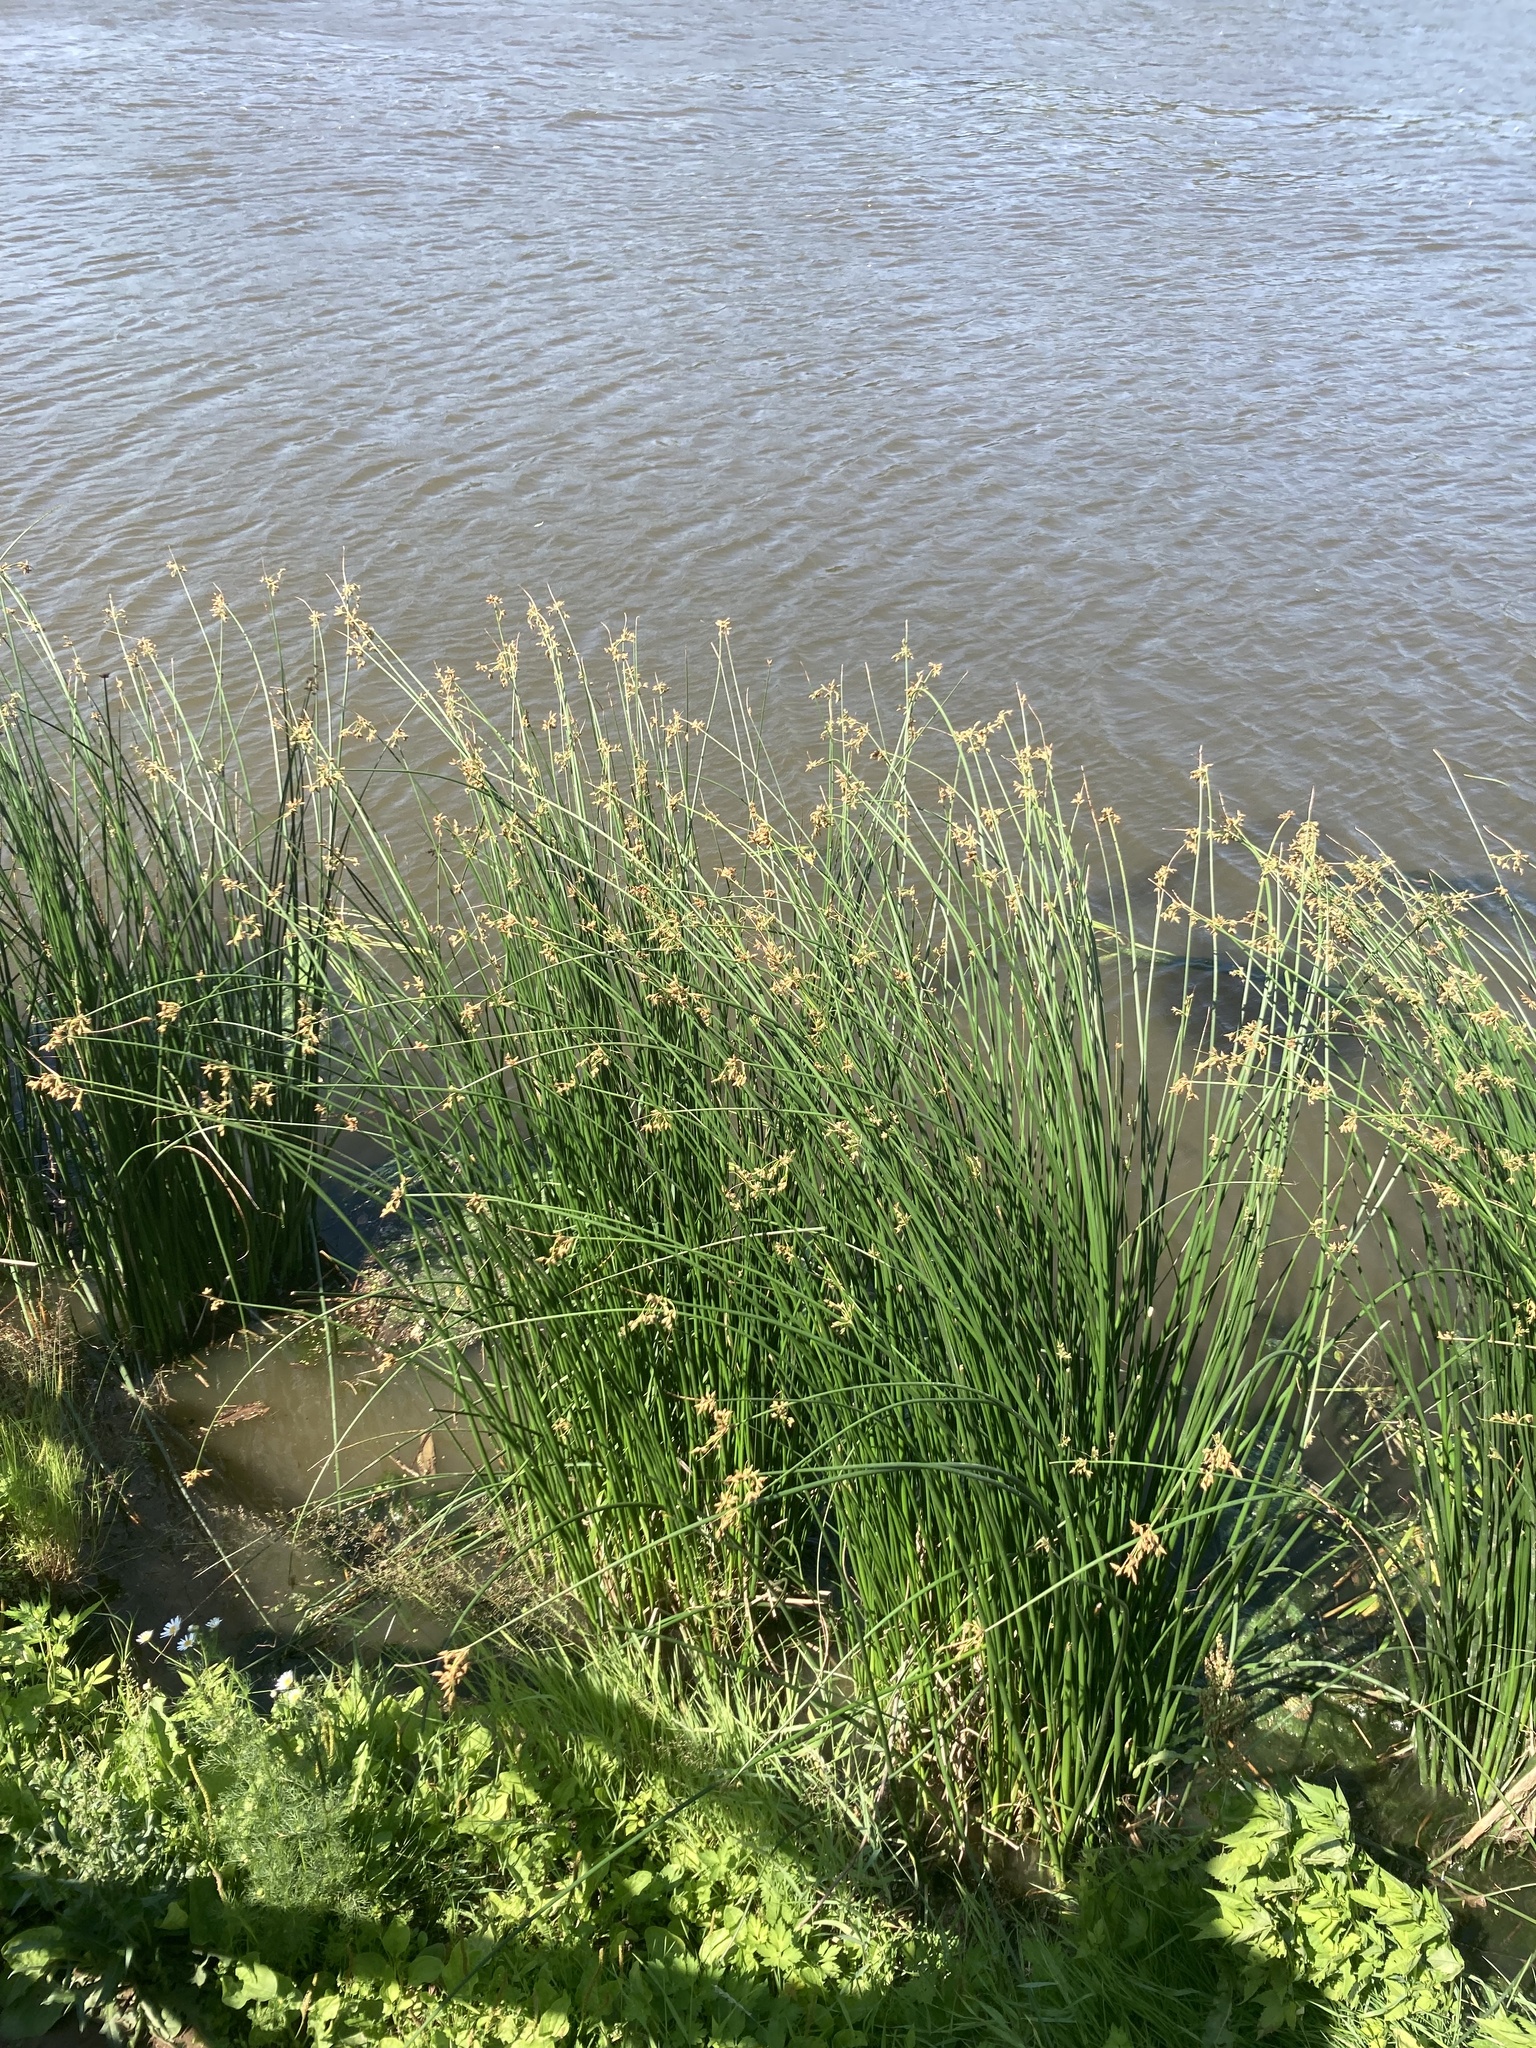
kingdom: Plantae
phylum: Tracheophyta
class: Liliopsida
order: Poales
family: Cyperaceae
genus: Schoenoplectus
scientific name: Schoenoplectus lacustris
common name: Common club-rush
